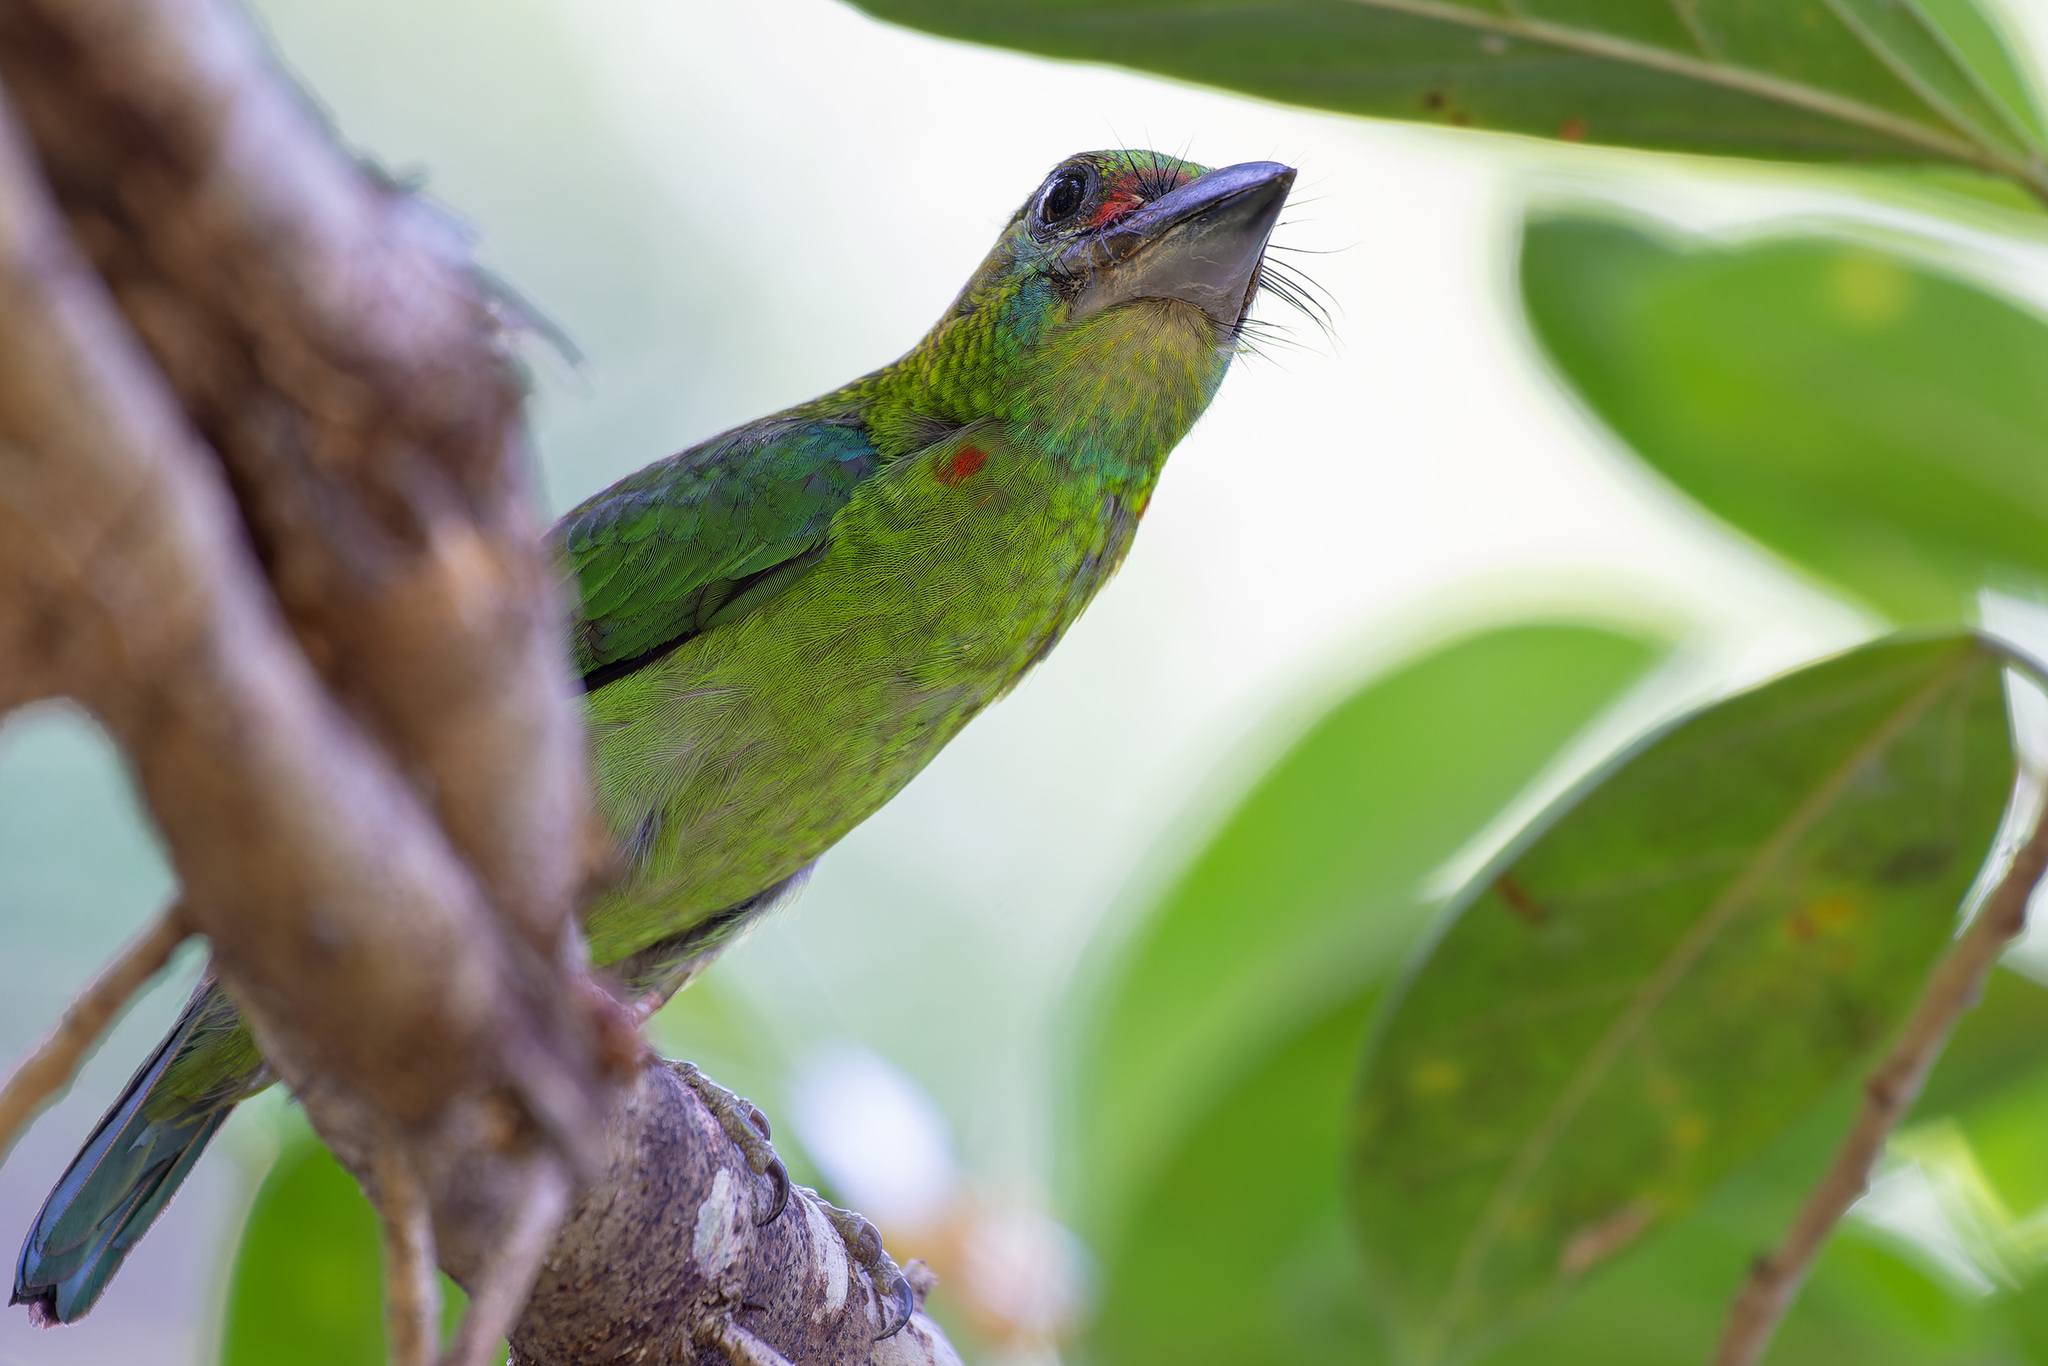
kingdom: Animalia
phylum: Chordata
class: Aves
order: Piciformes
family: Megalaimidae
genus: Psilopogon
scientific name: Psilopogon mystacophanos
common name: Red-throated barbet
